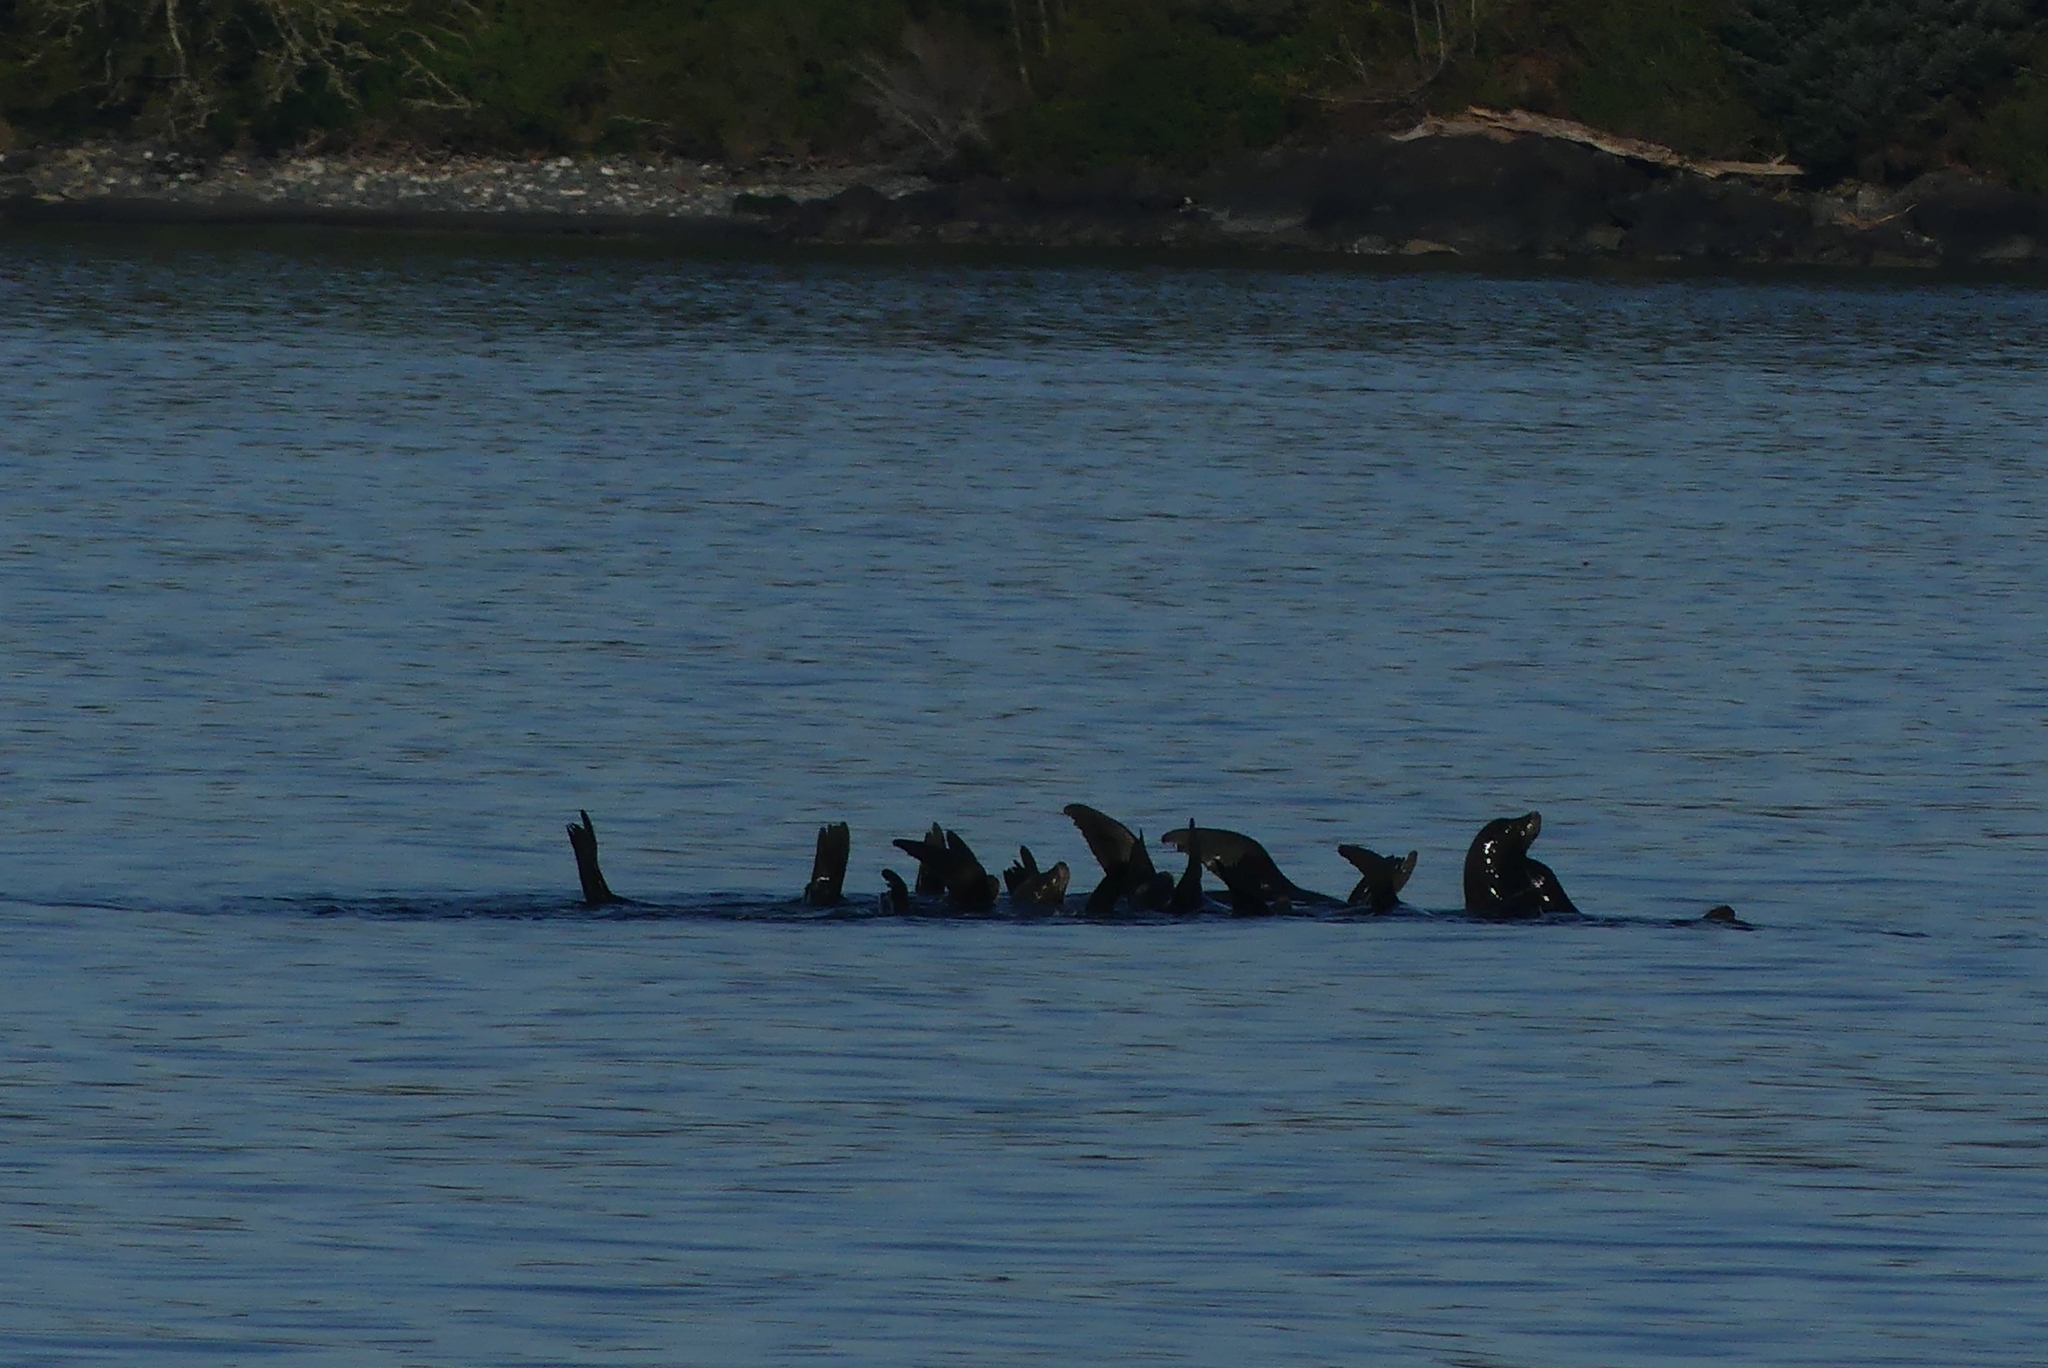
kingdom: Animalia
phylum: Chordata
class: Mammalia
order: Carnivora
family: Otariidae
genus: Zalophus
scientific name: Zalophus californianus
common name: California sea lion
